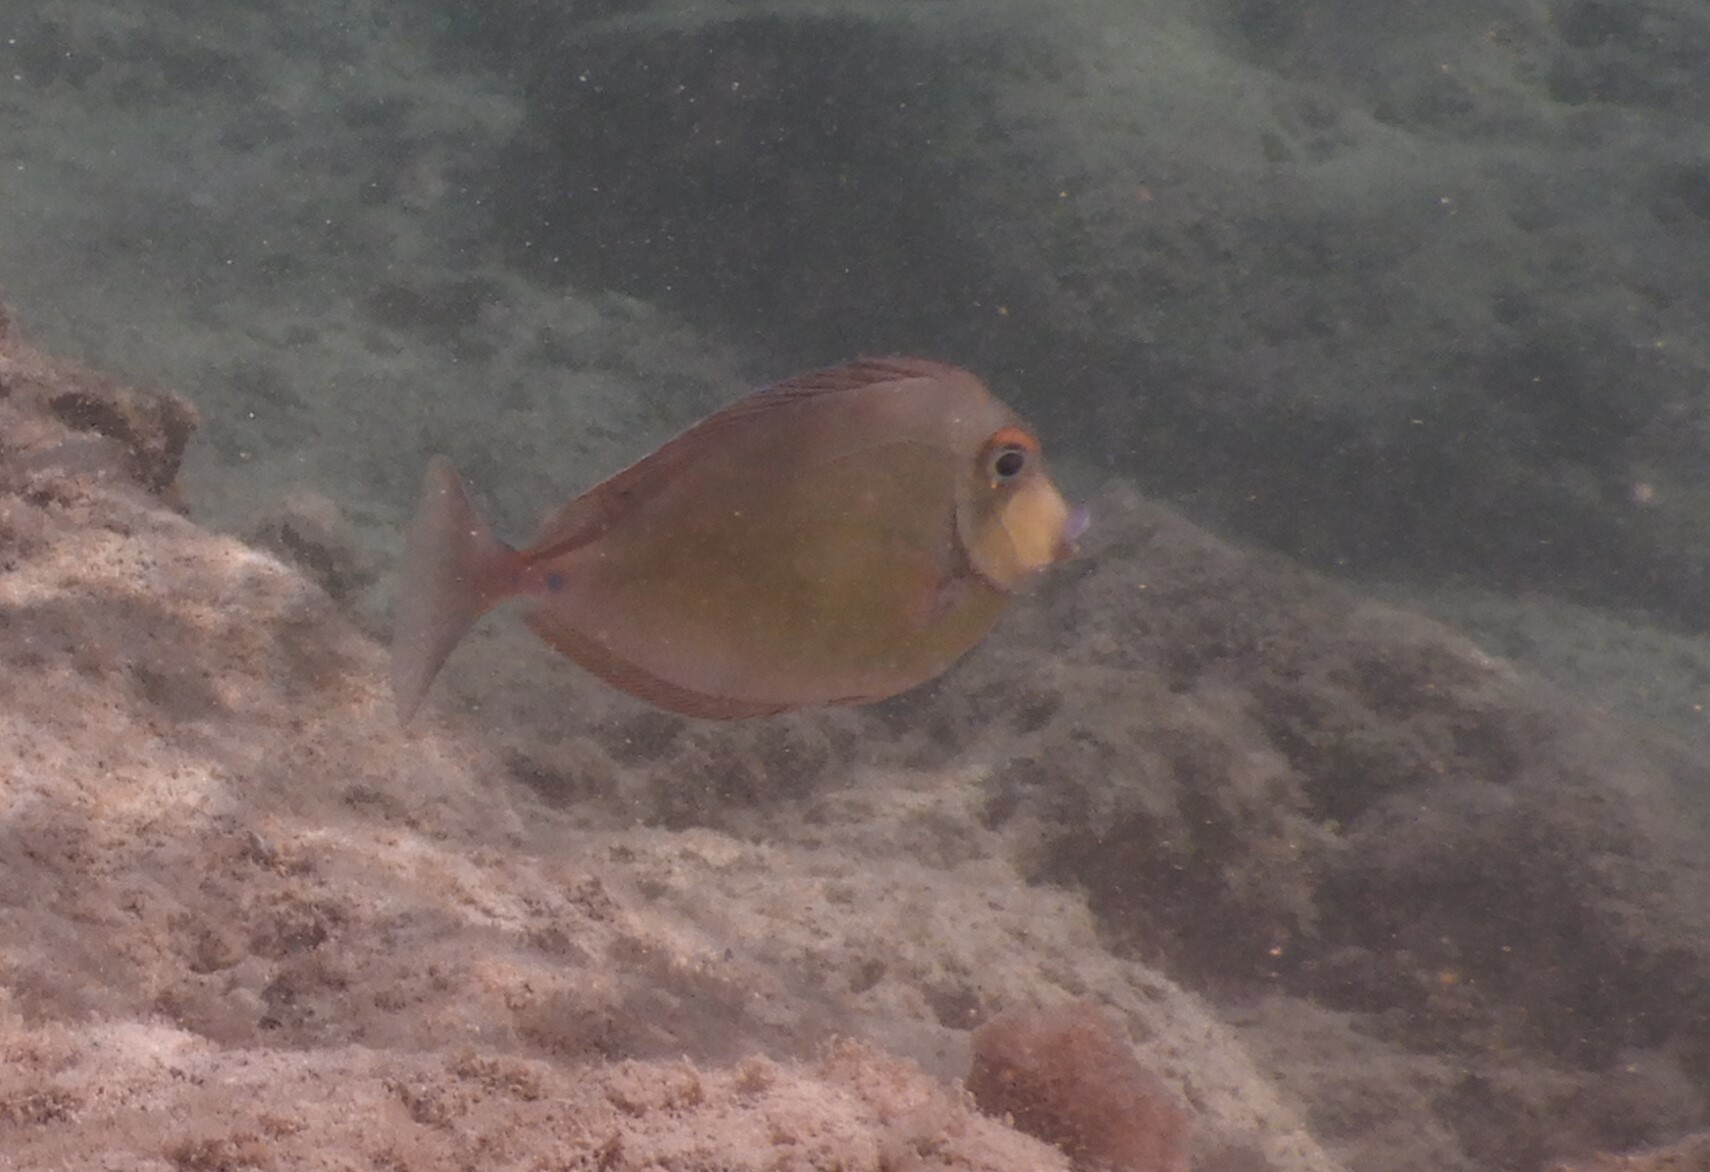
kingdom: Animalia
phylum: Chordata
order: Perciformes
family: Acanthuridae
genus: Naso
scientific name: Naso unicornis
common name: Bluespine unicornfish
